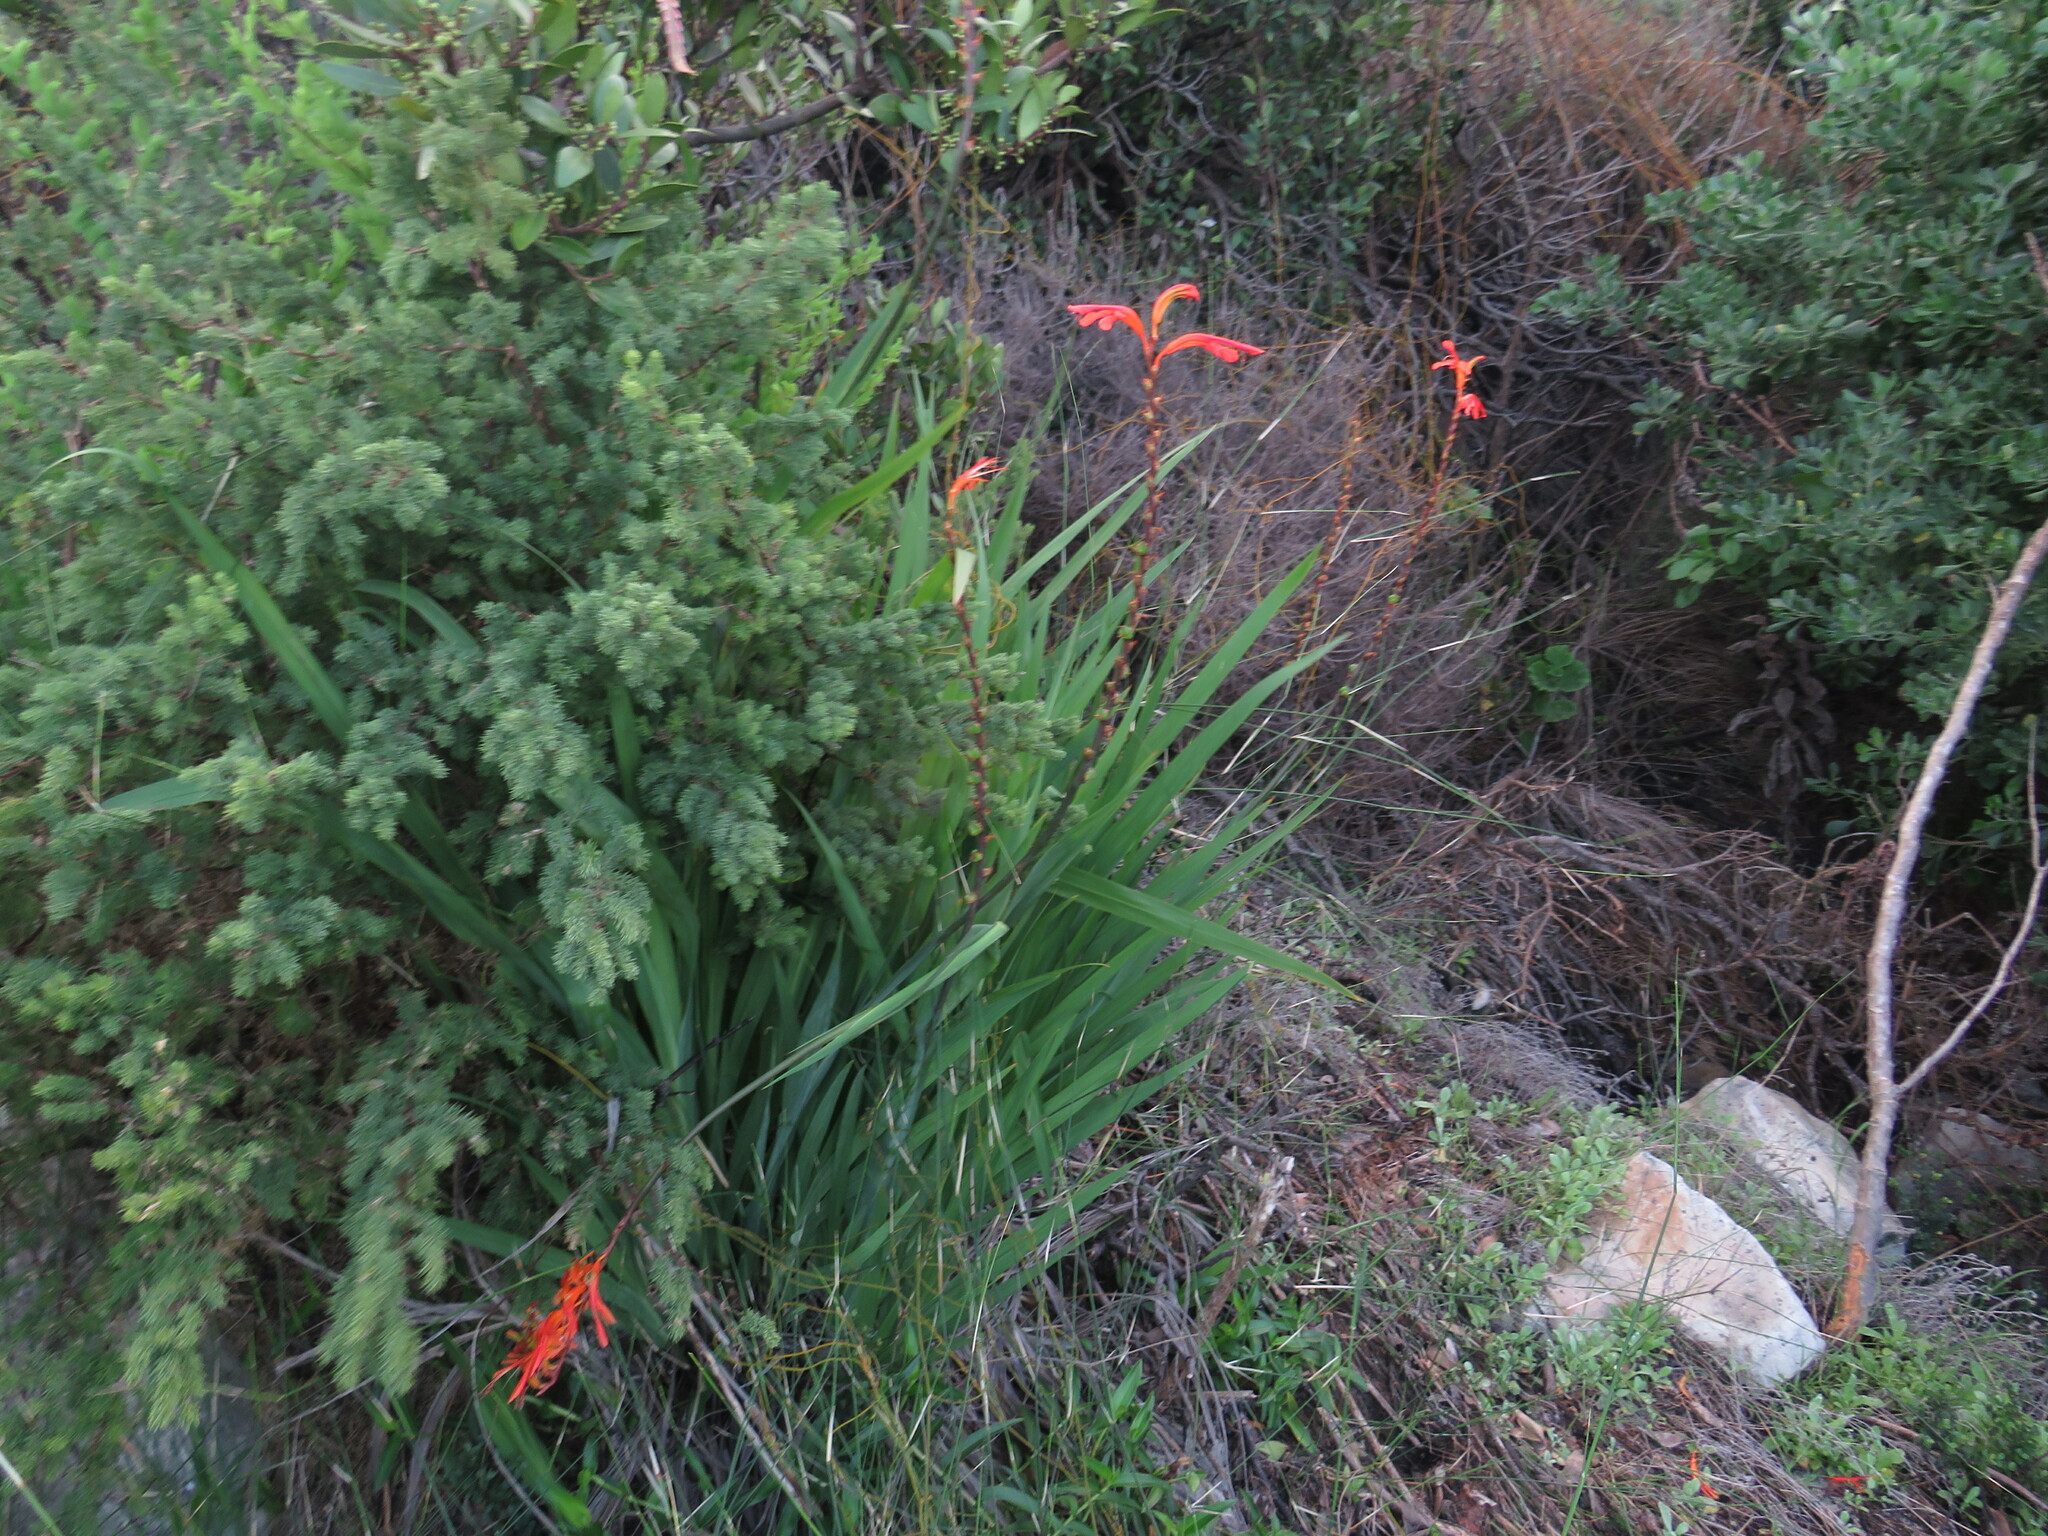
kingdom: Plantae
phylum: Tracheophyta
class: Liliopsida
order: Asparagales
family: Asparagaceae
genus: Asparagus
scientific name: Asparagus rubicundus
